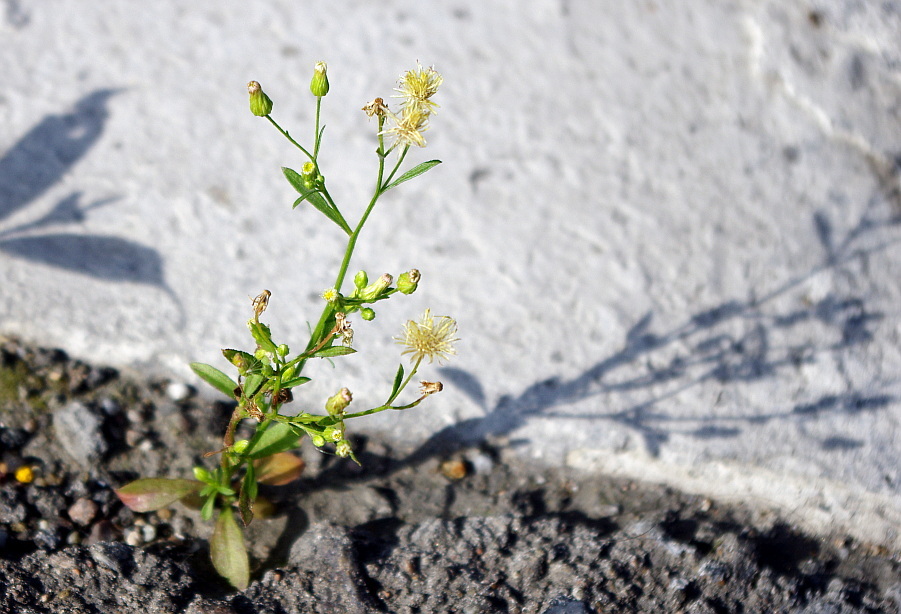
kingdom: Plantae
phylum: Tracheophyta
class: Magnoliopsida
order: Asterales
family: Asteraceae
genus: Erigeron
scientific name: Erigeron canadensis
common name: Canadian fleabane
